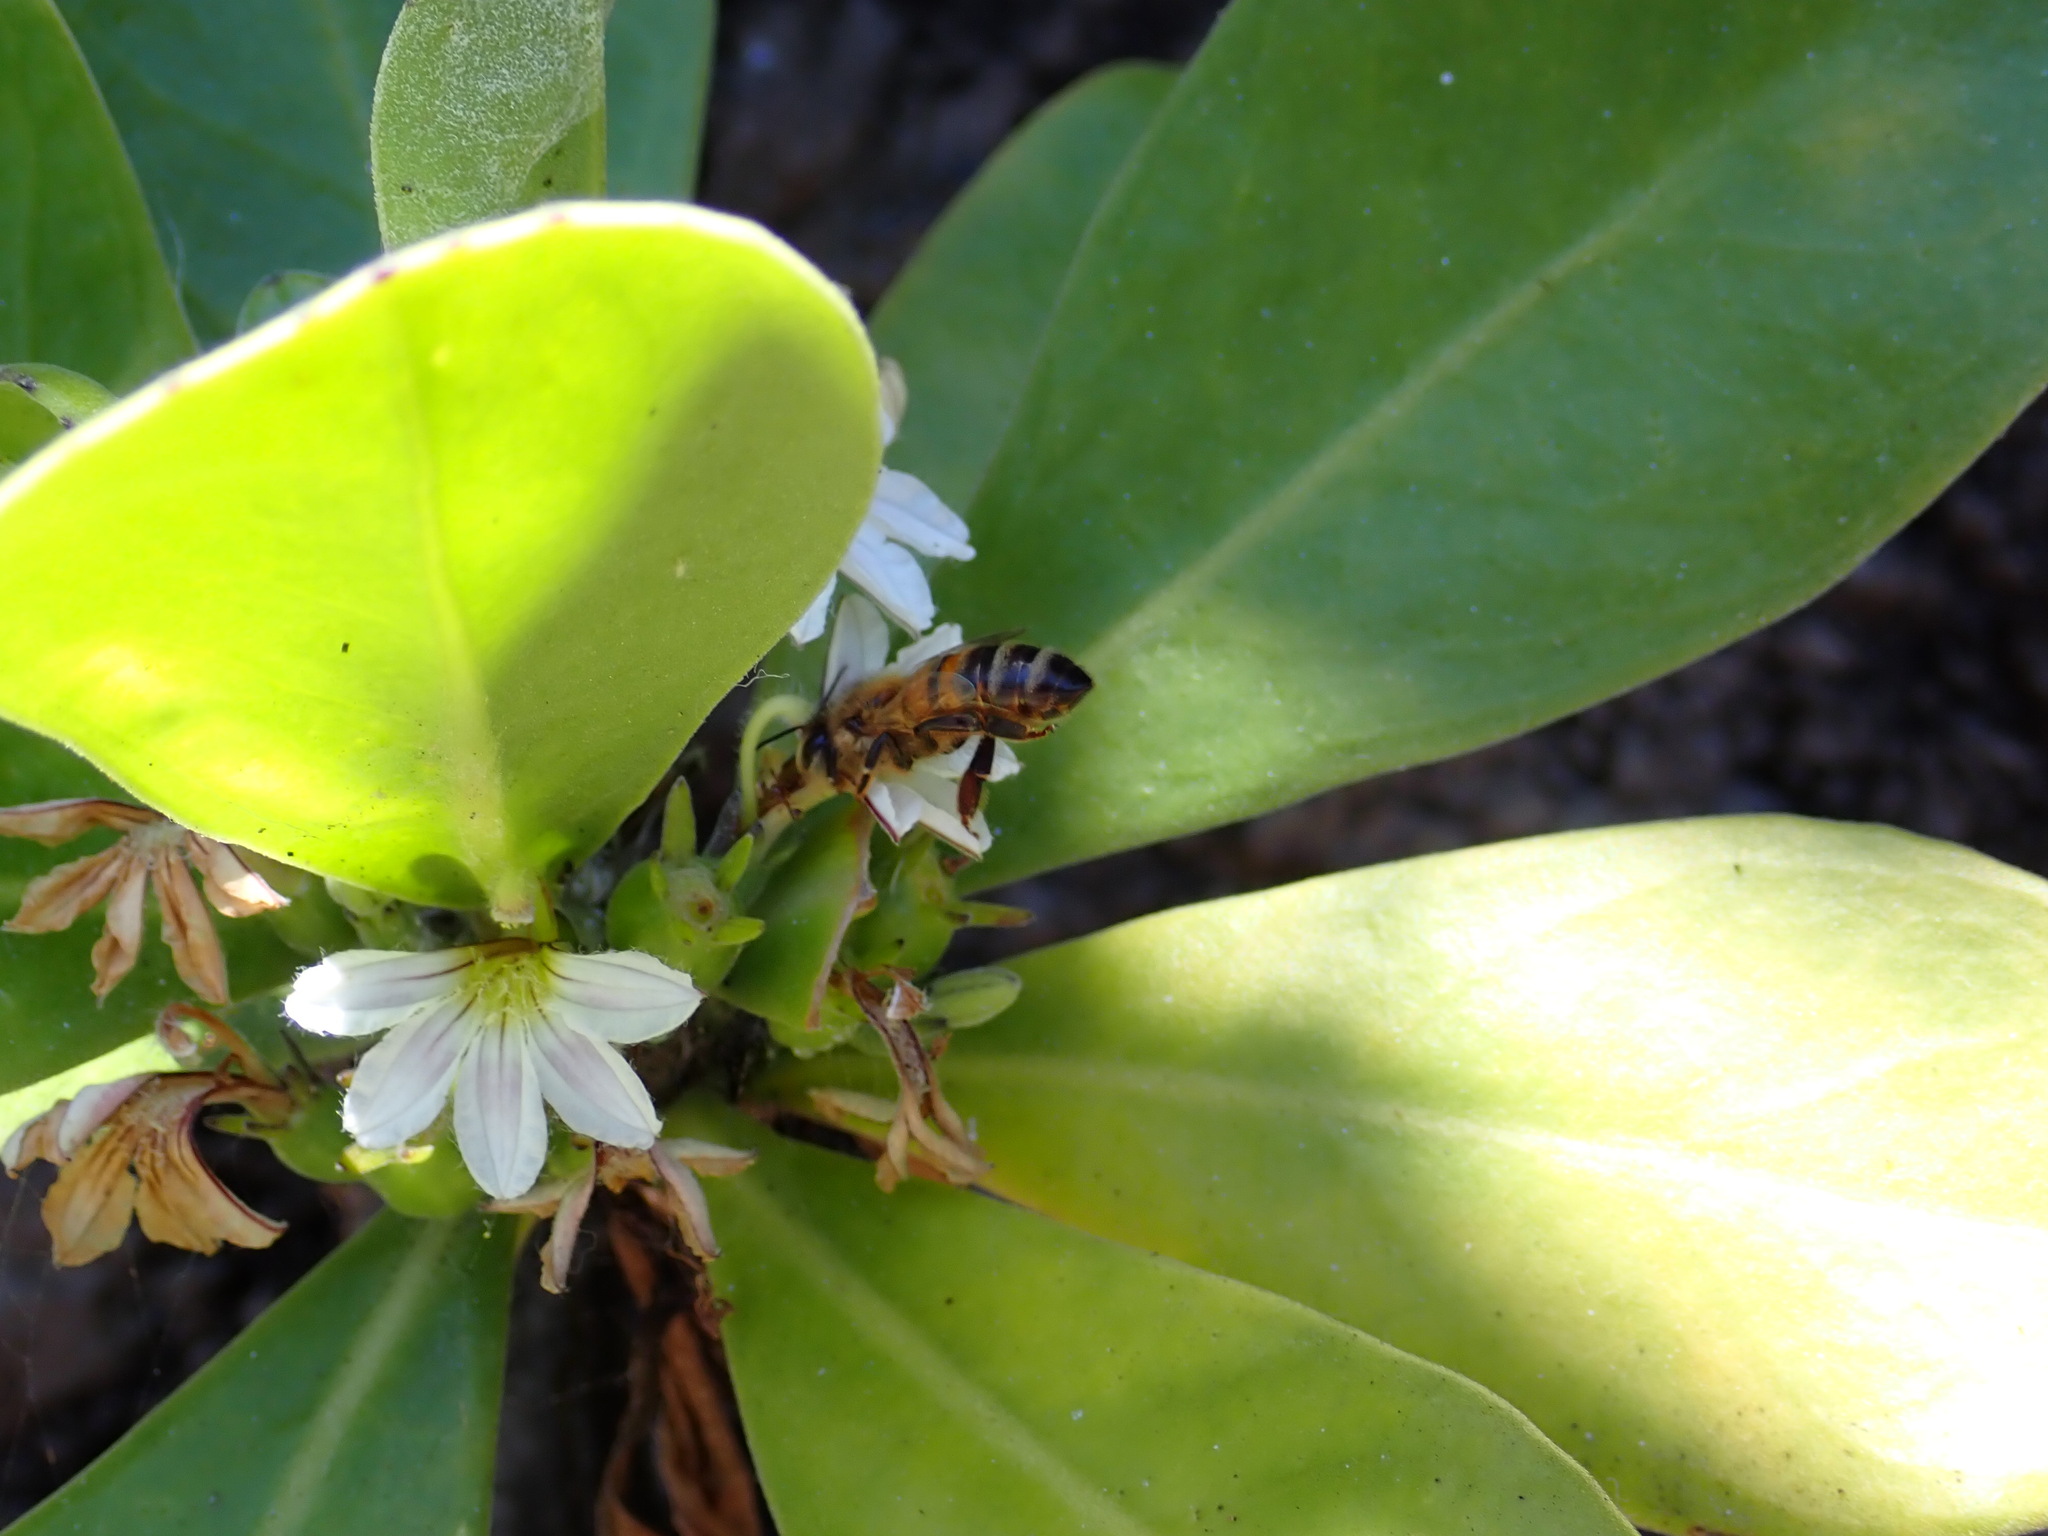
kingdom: Animalia
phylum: Arthropoda
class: Insecta
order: Hymenoptera
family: Apidae
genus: Apis
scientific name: Apis mellifera
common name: Honey bee
